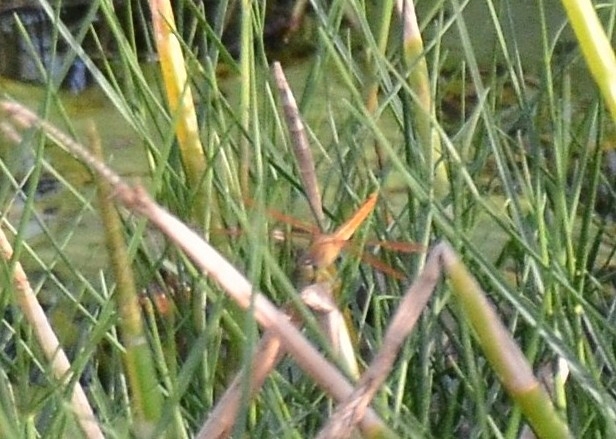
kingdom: Animalia
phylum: Arthropoda
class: Insecta
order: Odonata
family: Libellulidae
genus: Brachythemis
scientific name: Brachythemis contaminata
